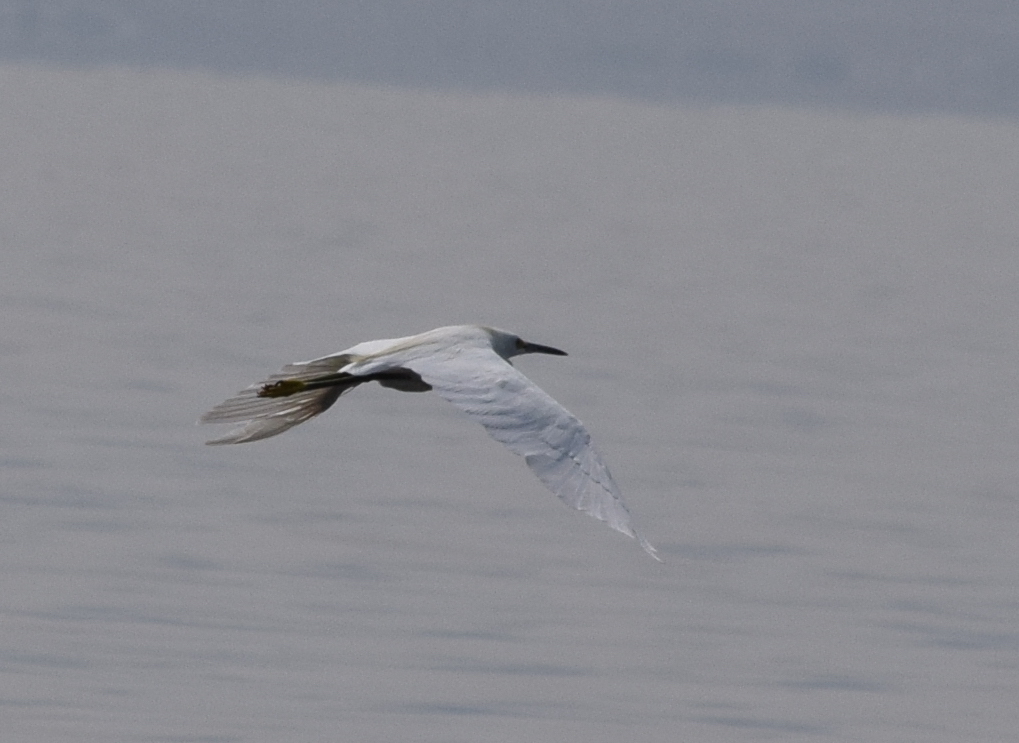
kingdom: Animalia
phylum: Chordata
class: Aves
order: Pelecaniformes
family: Ardeidae
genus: Egretta
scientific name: Egretta thula
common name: Snowy egret
